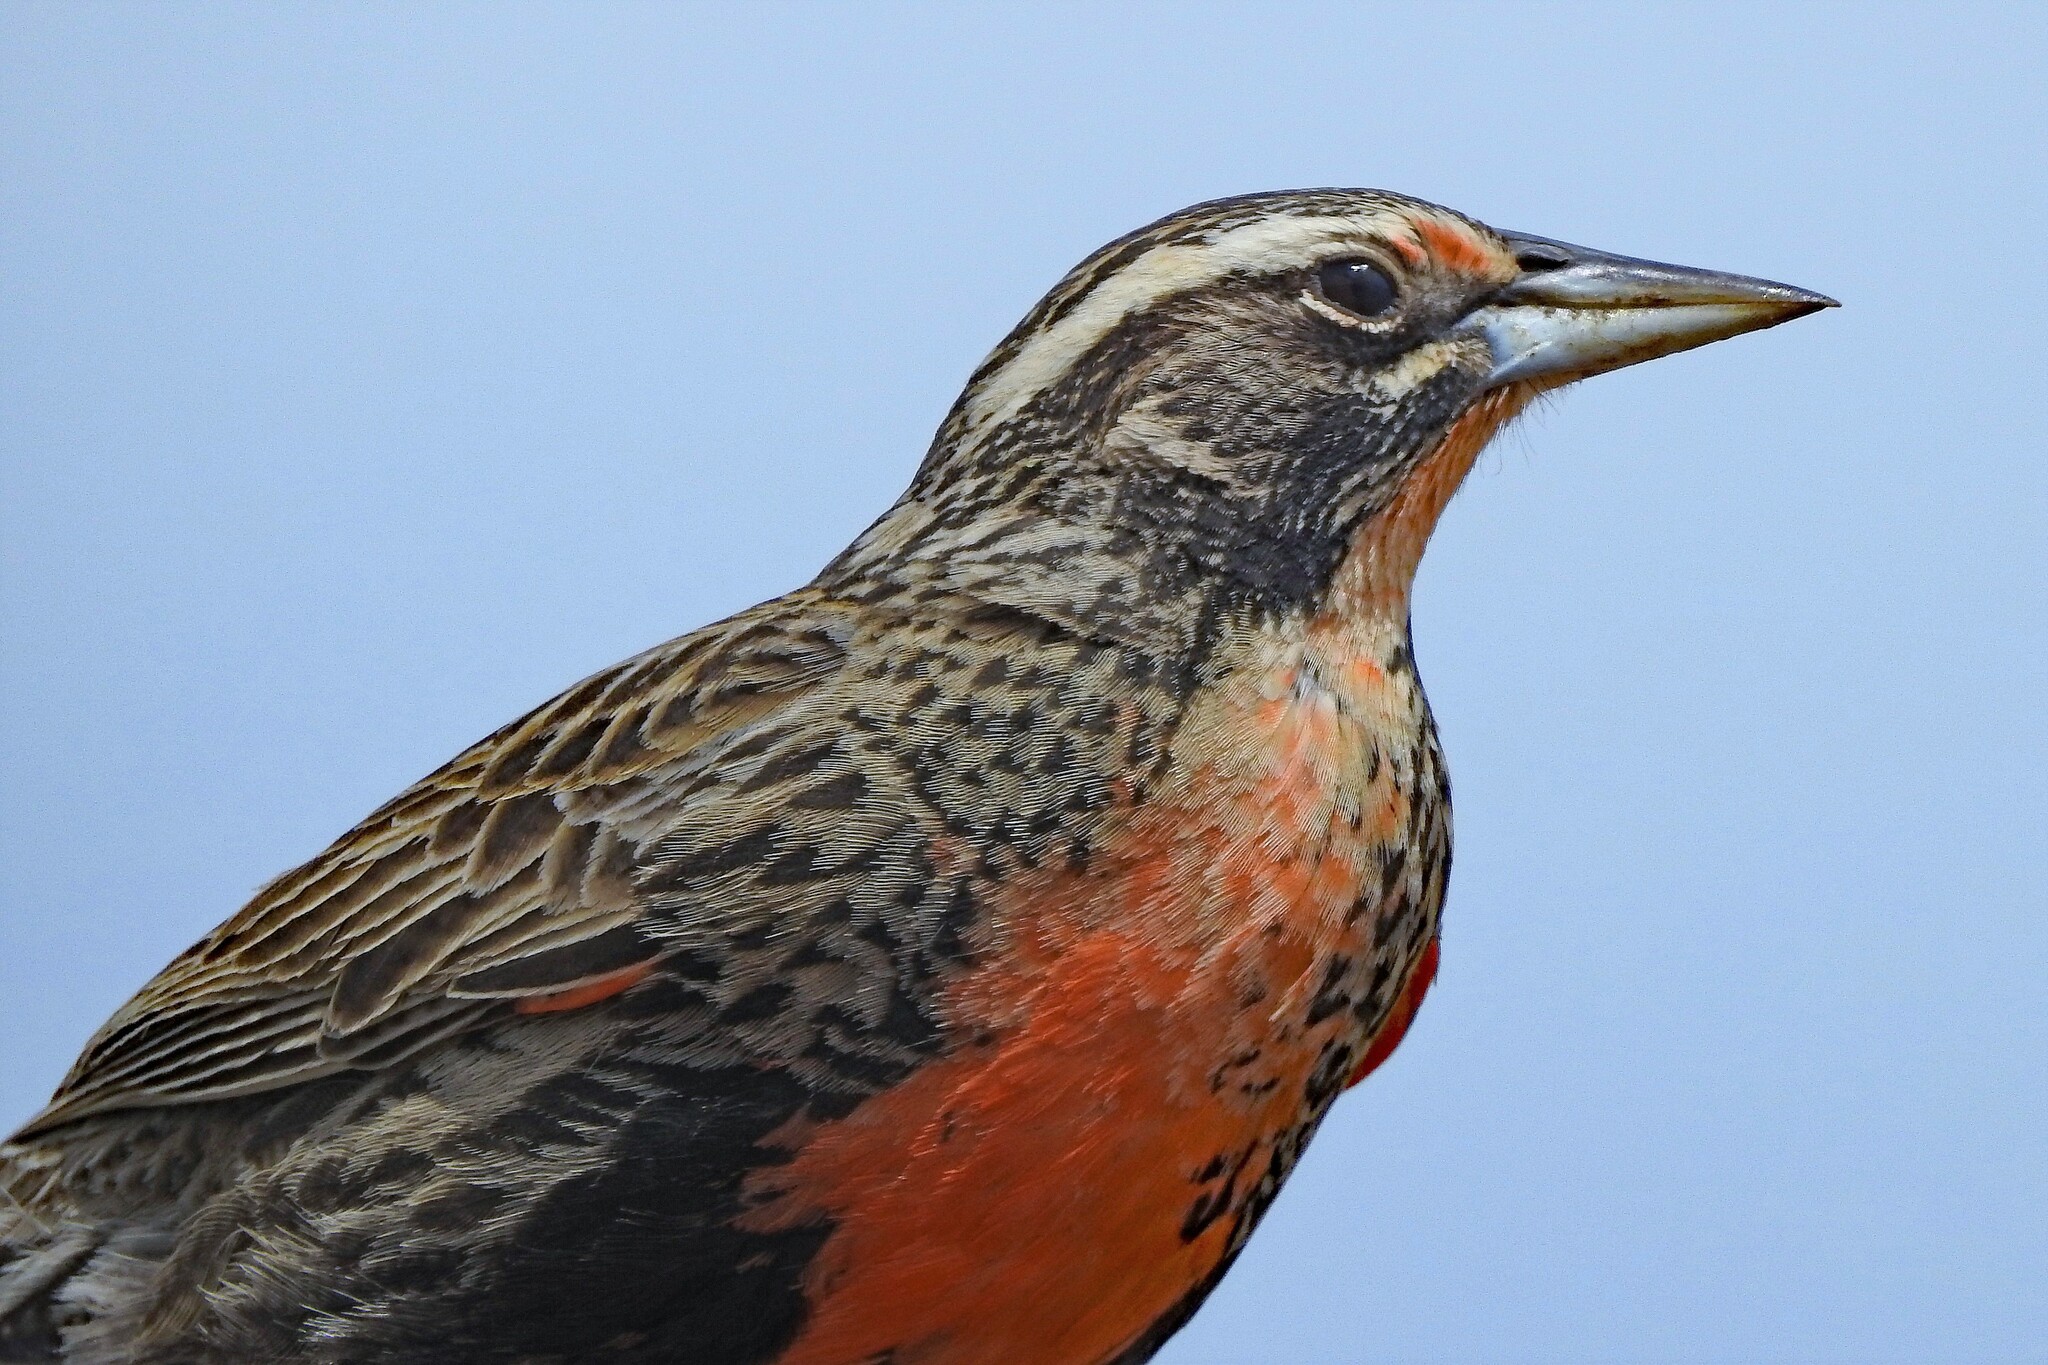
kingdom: Animalia
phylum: Chordata
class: Aves
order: Passeriformes
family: Icteridae
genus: Sturnella
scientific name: Sturnella loyca
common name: Long-tailed meadowlark
